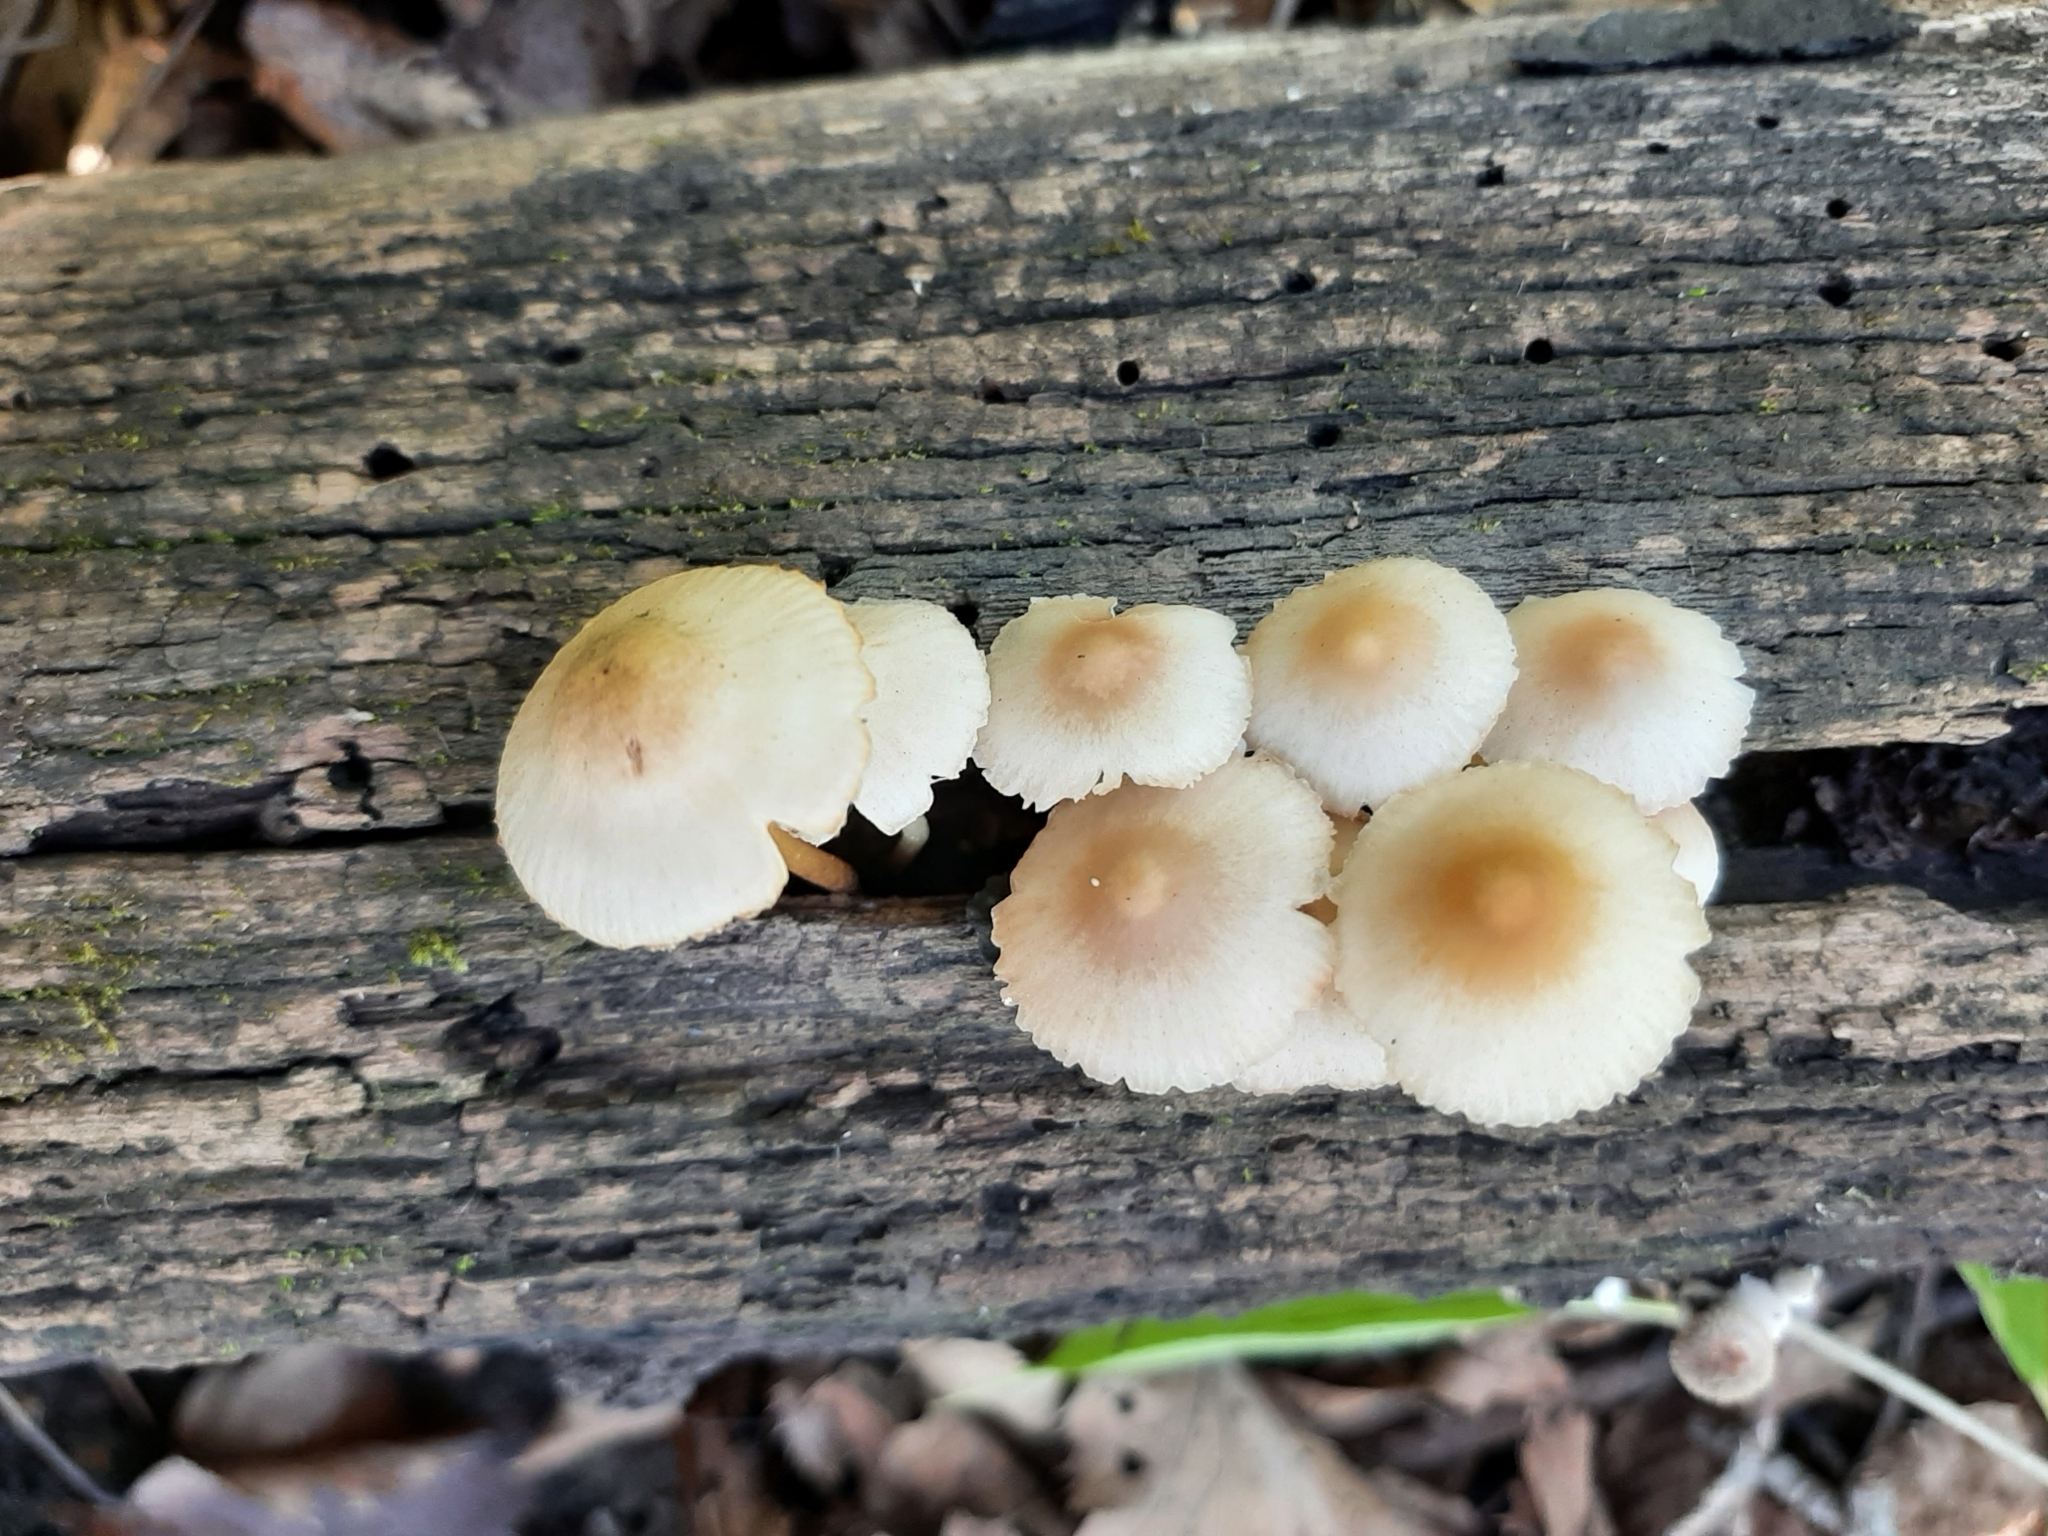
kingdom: Fungi
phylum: Basidiomycota
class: Agaricomycetes
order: Agaricales
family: Mycenaceae
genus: Mycena
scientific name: Mycena galericulata
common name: Bonnet mycena
